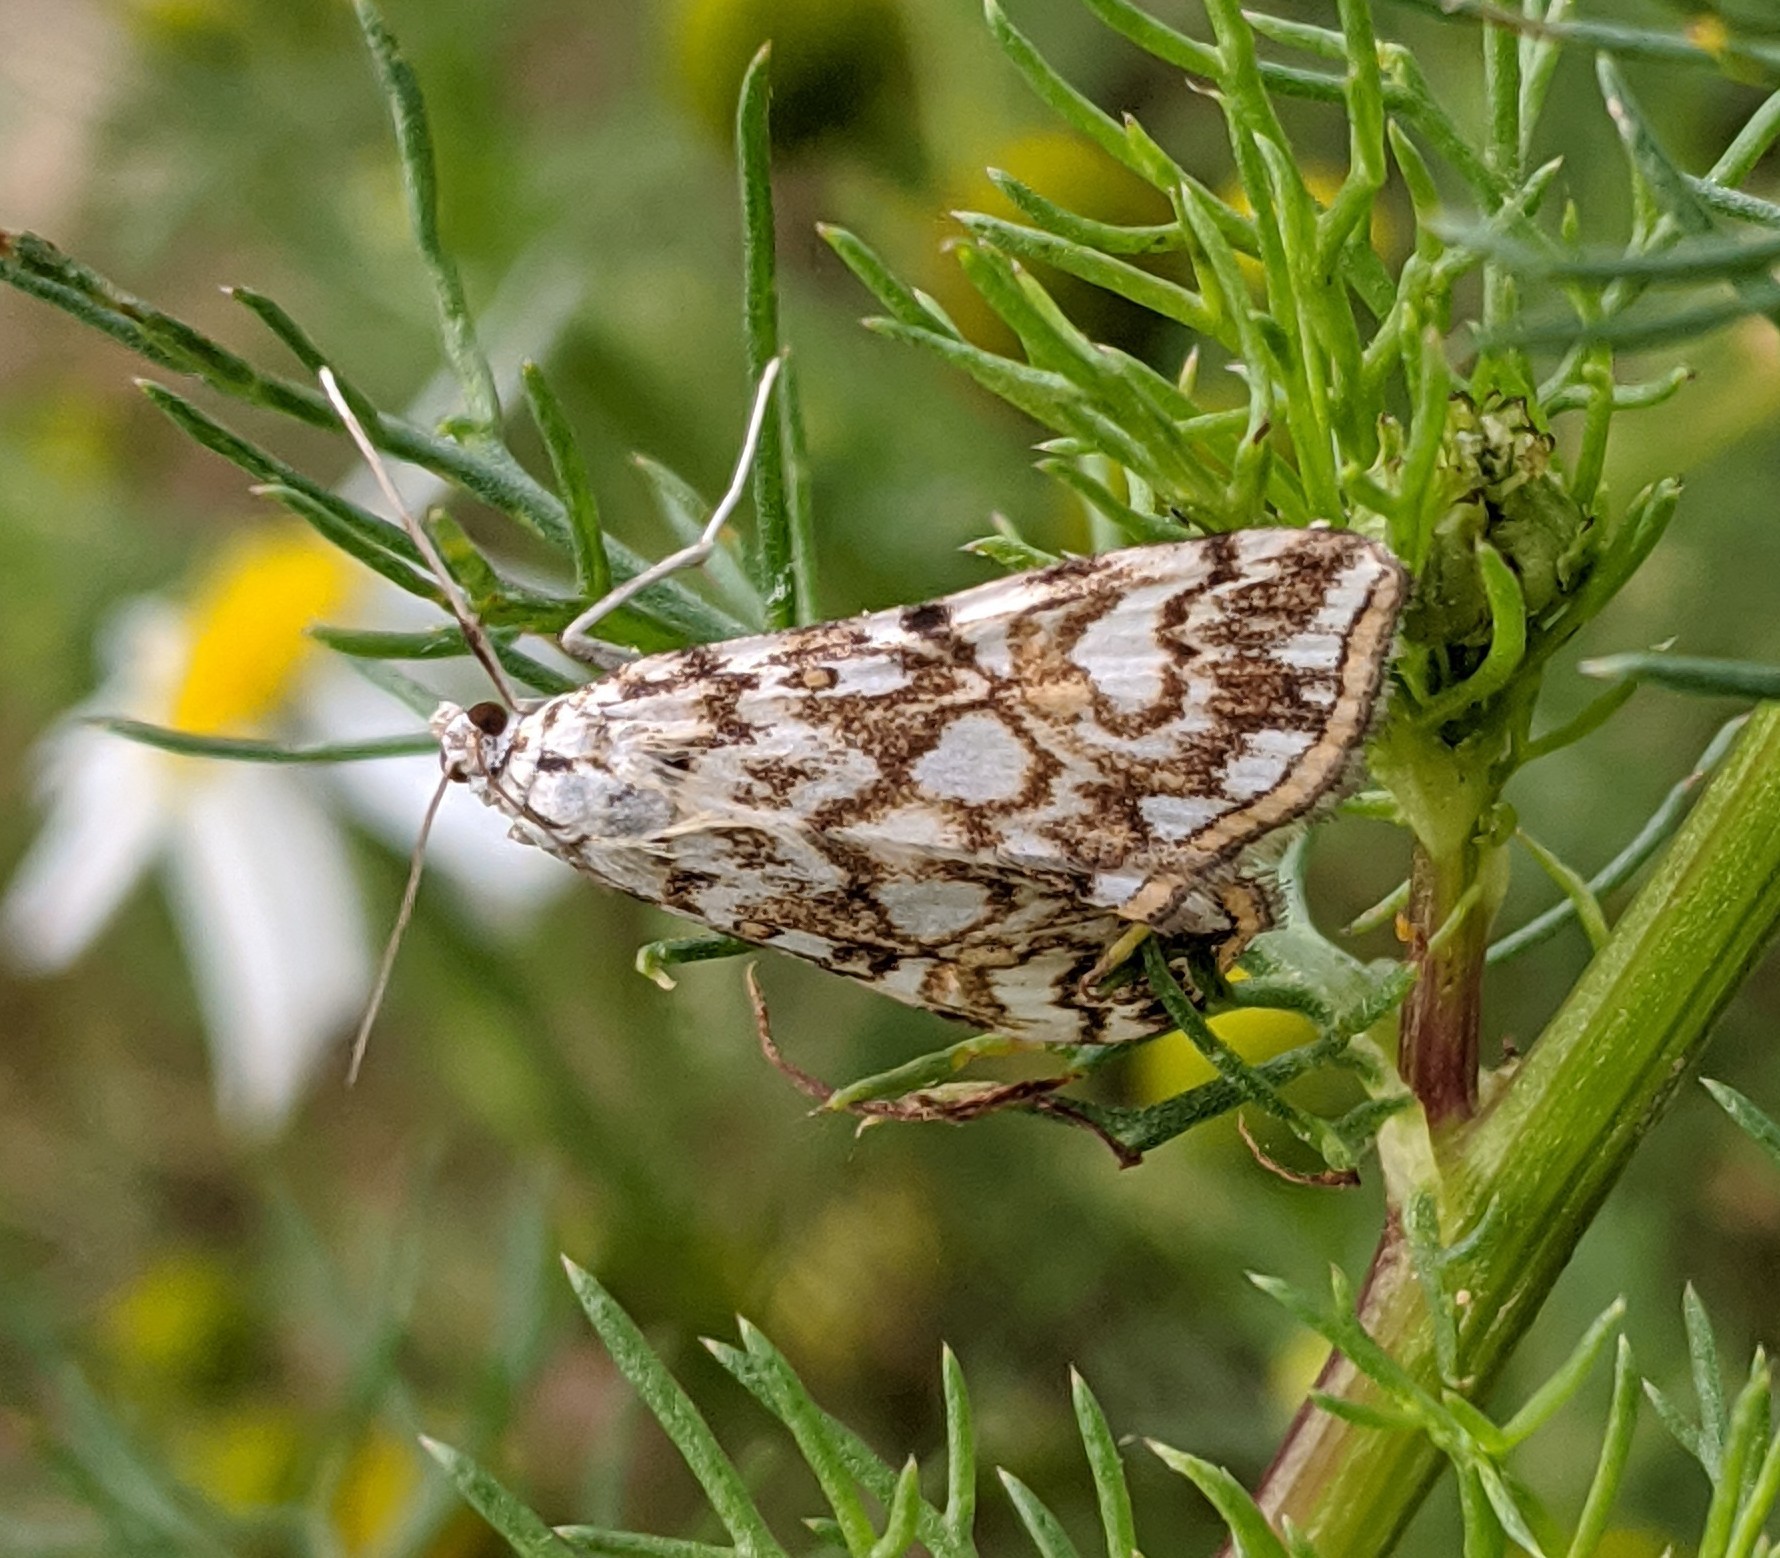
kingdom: Animalia
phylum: Arthropoda
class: Insecta
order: Lepidoptera
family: Crambidae
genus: Elophila
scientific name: Elophila nymphaeata
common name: Brown china-mark
